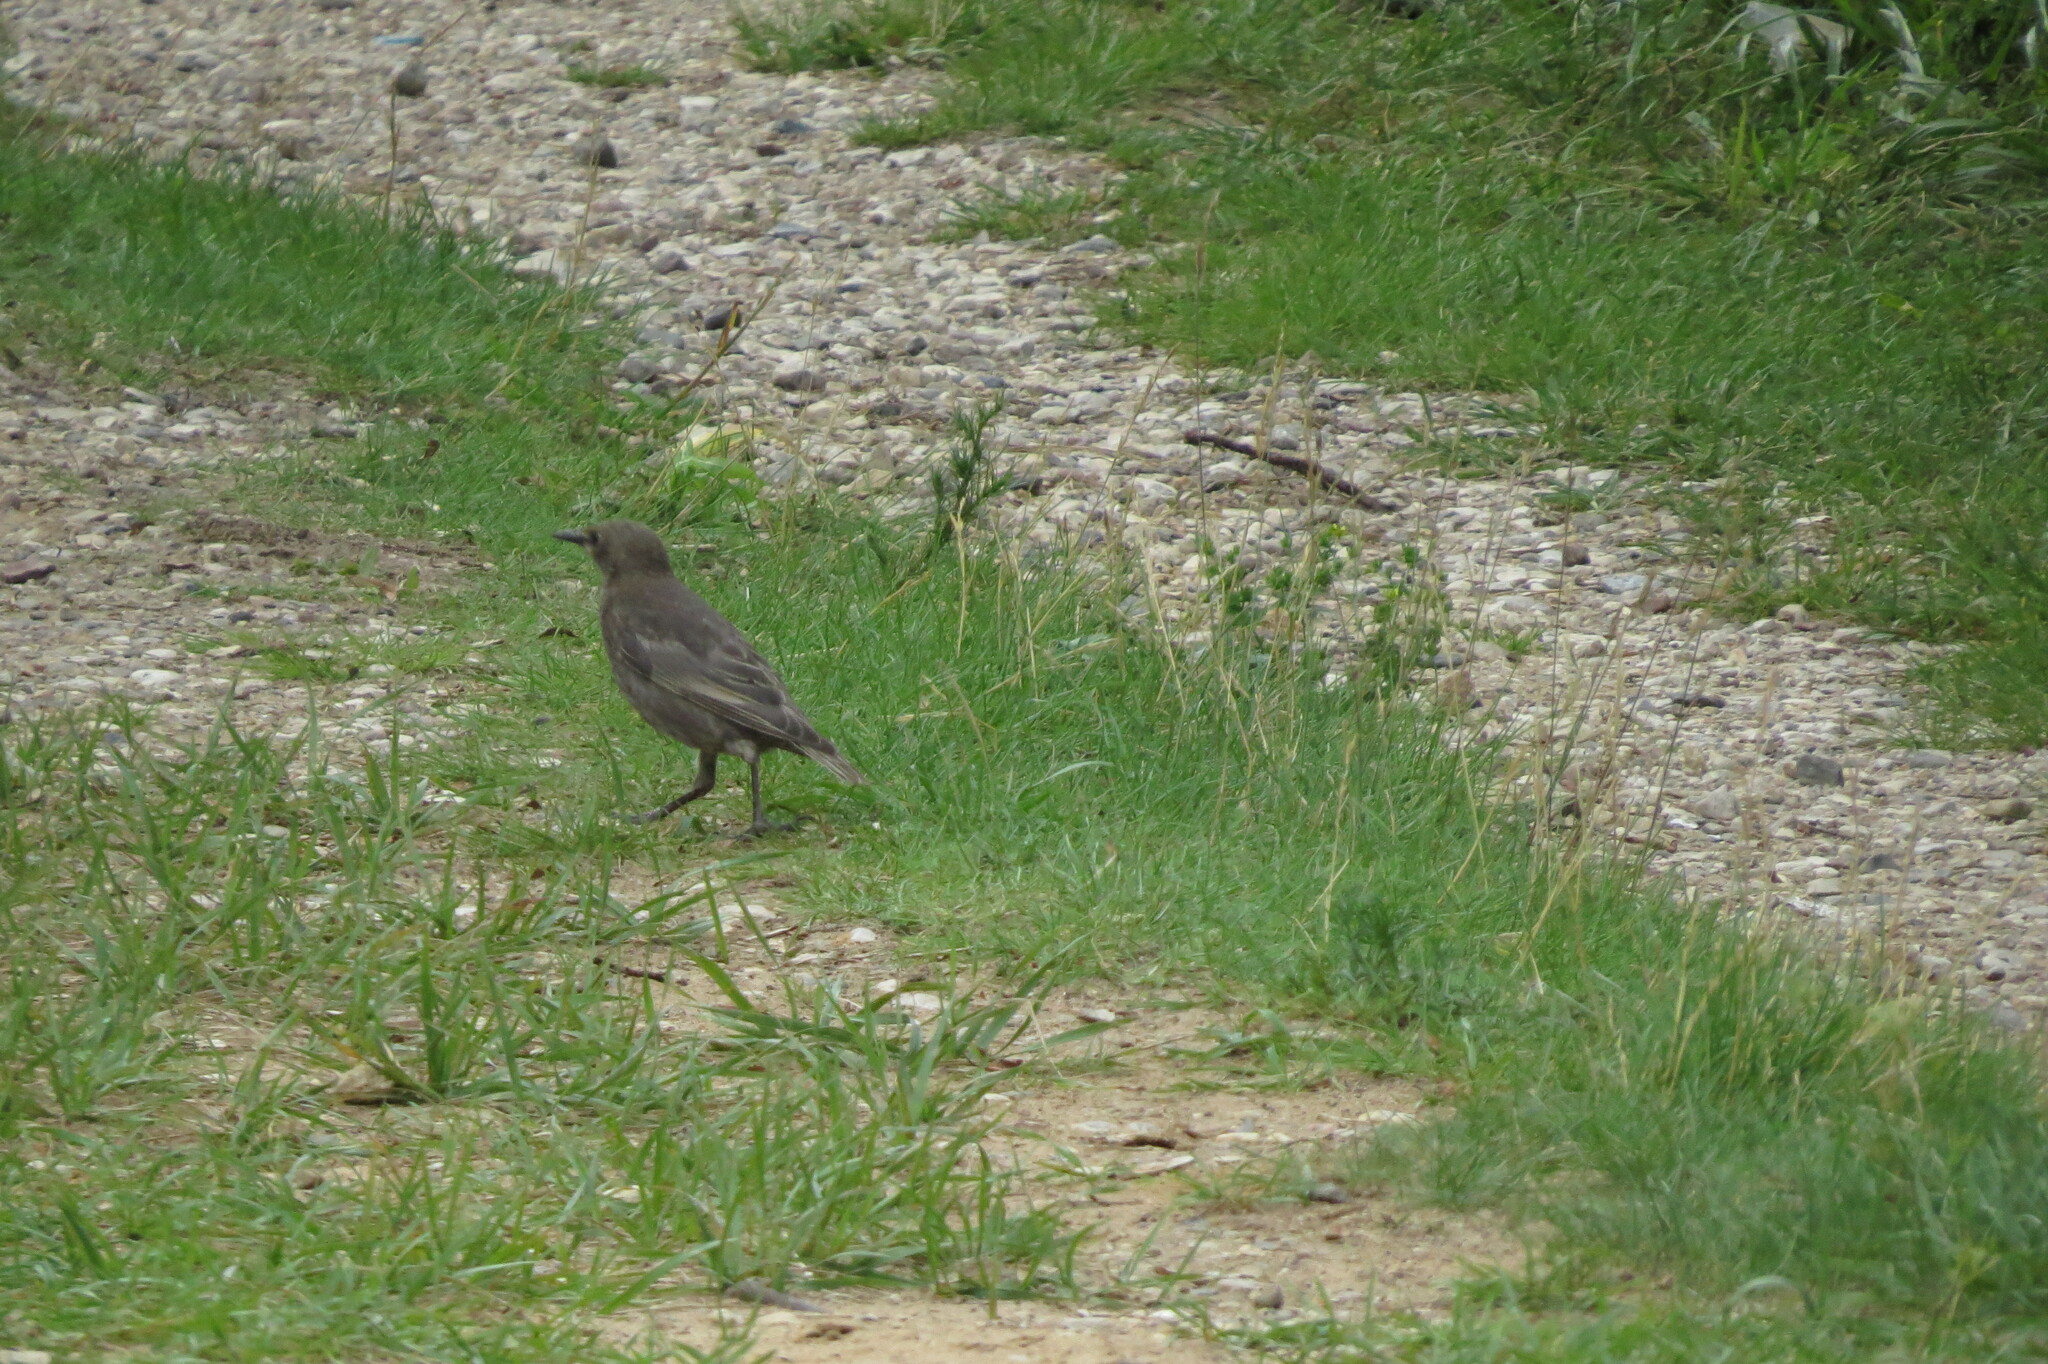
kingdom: Animalia
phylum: Chordata
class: Aves
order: Passeriformes
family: Sturnidae
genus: Sturnus
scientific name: Sturnus vulgaris
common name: Common starling
